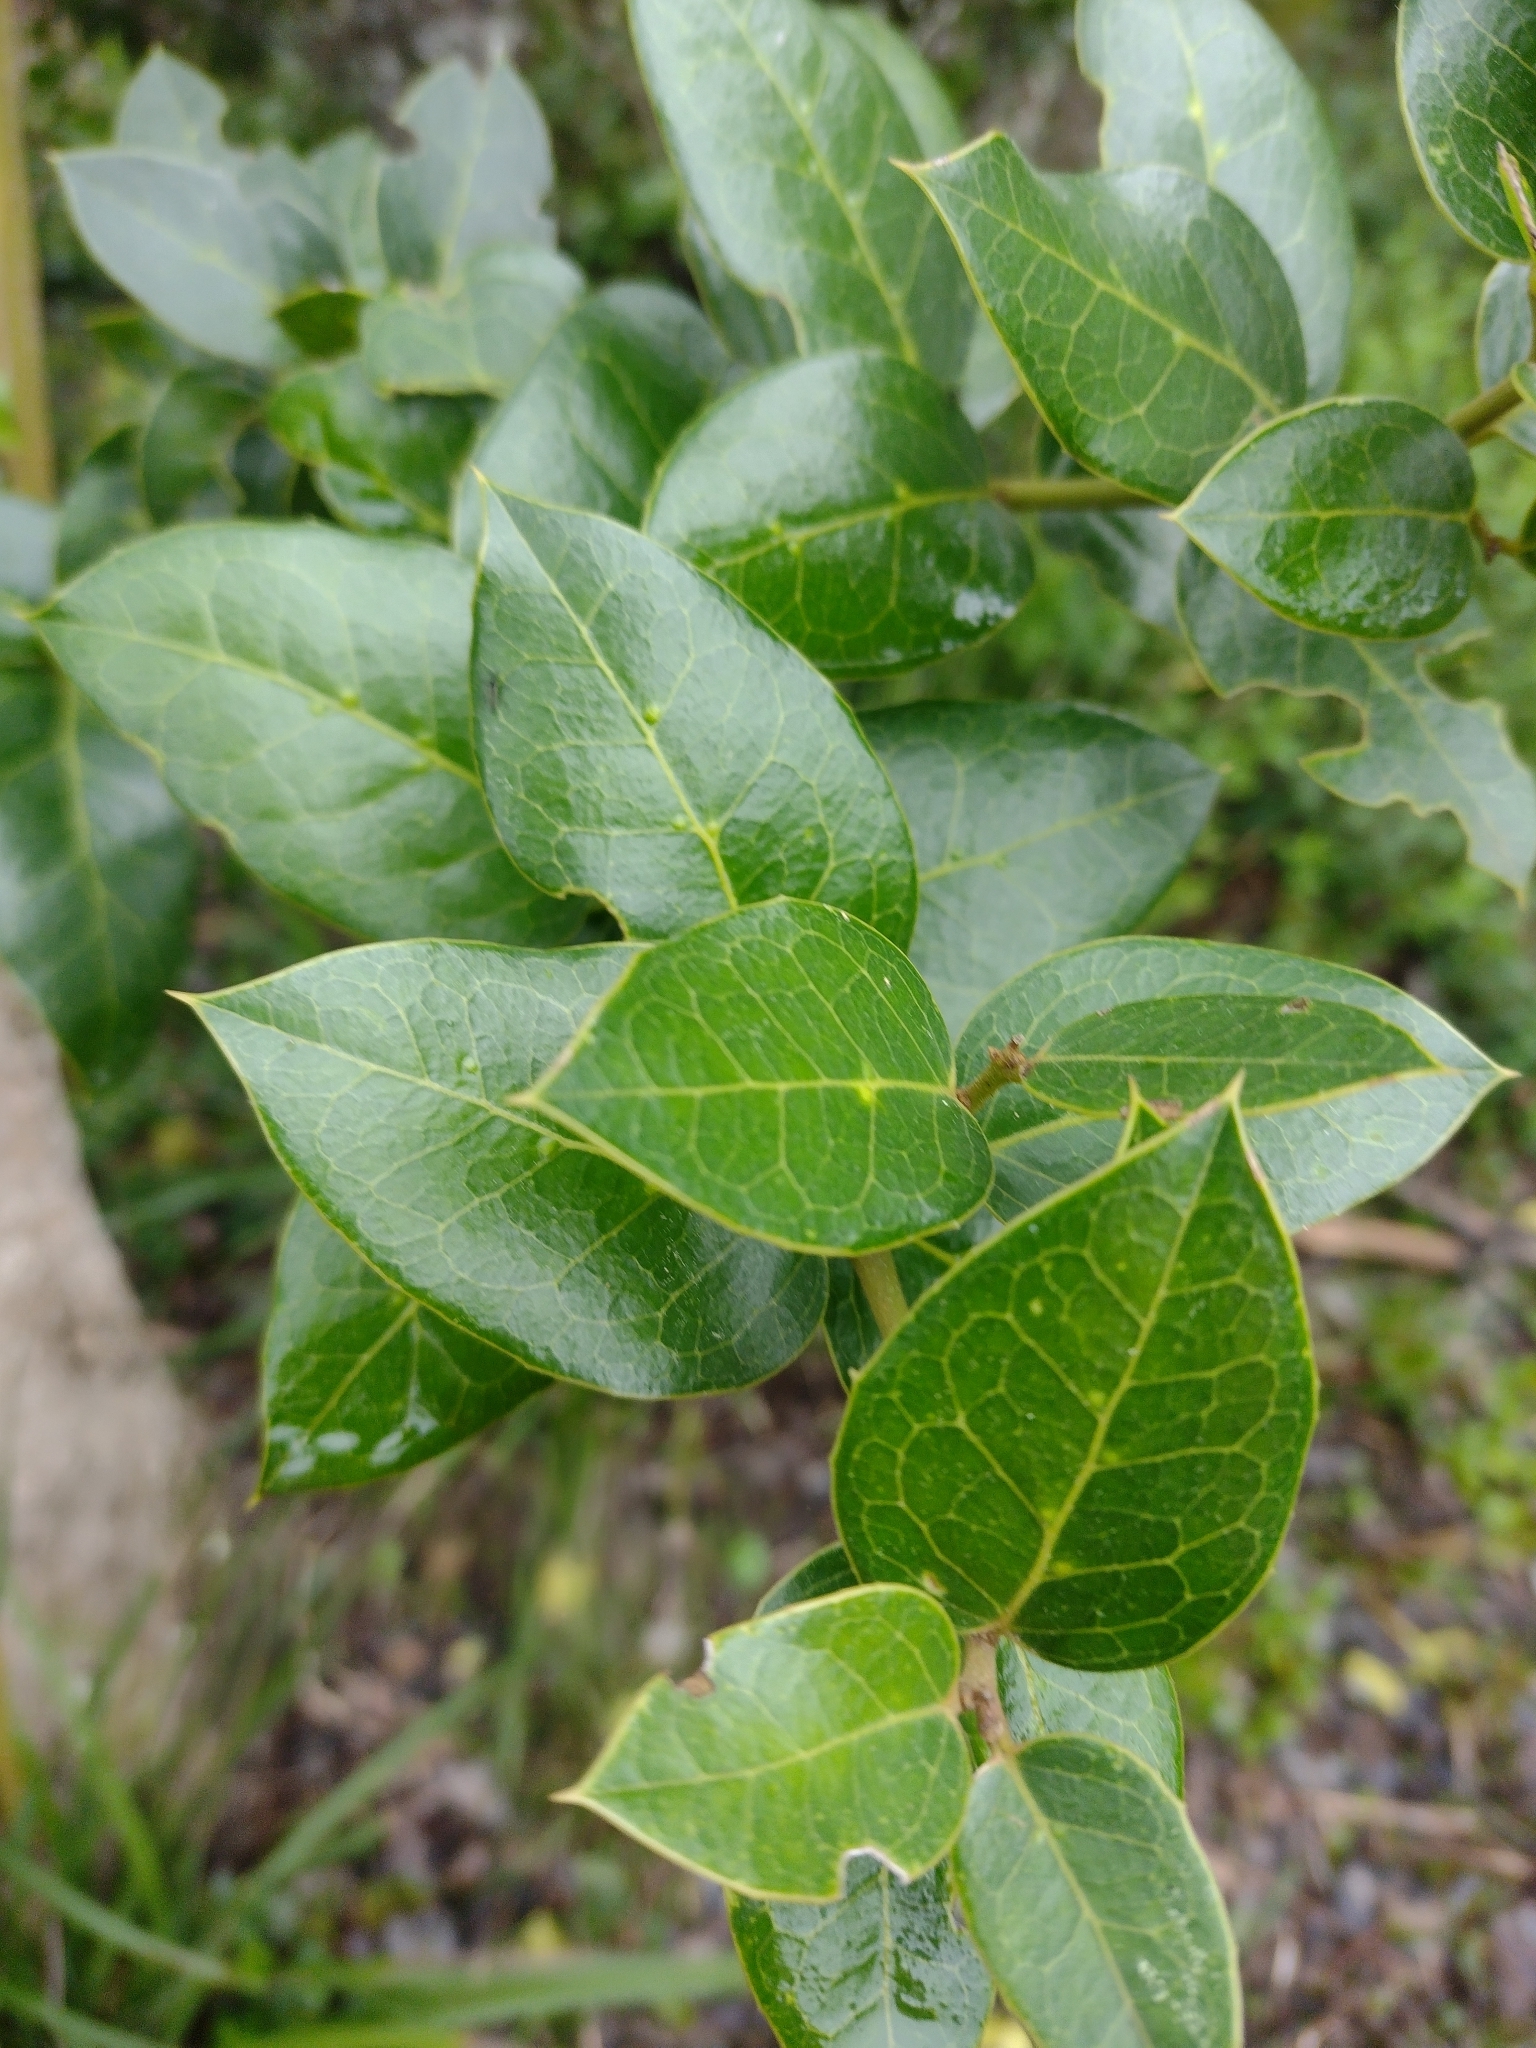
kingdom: Plantae
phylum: Tracheophyta
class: Magnoliopsida
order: Cardiopteridales
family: Cardiopteridaceae
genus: Citronella
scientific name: Citronella mucronata
